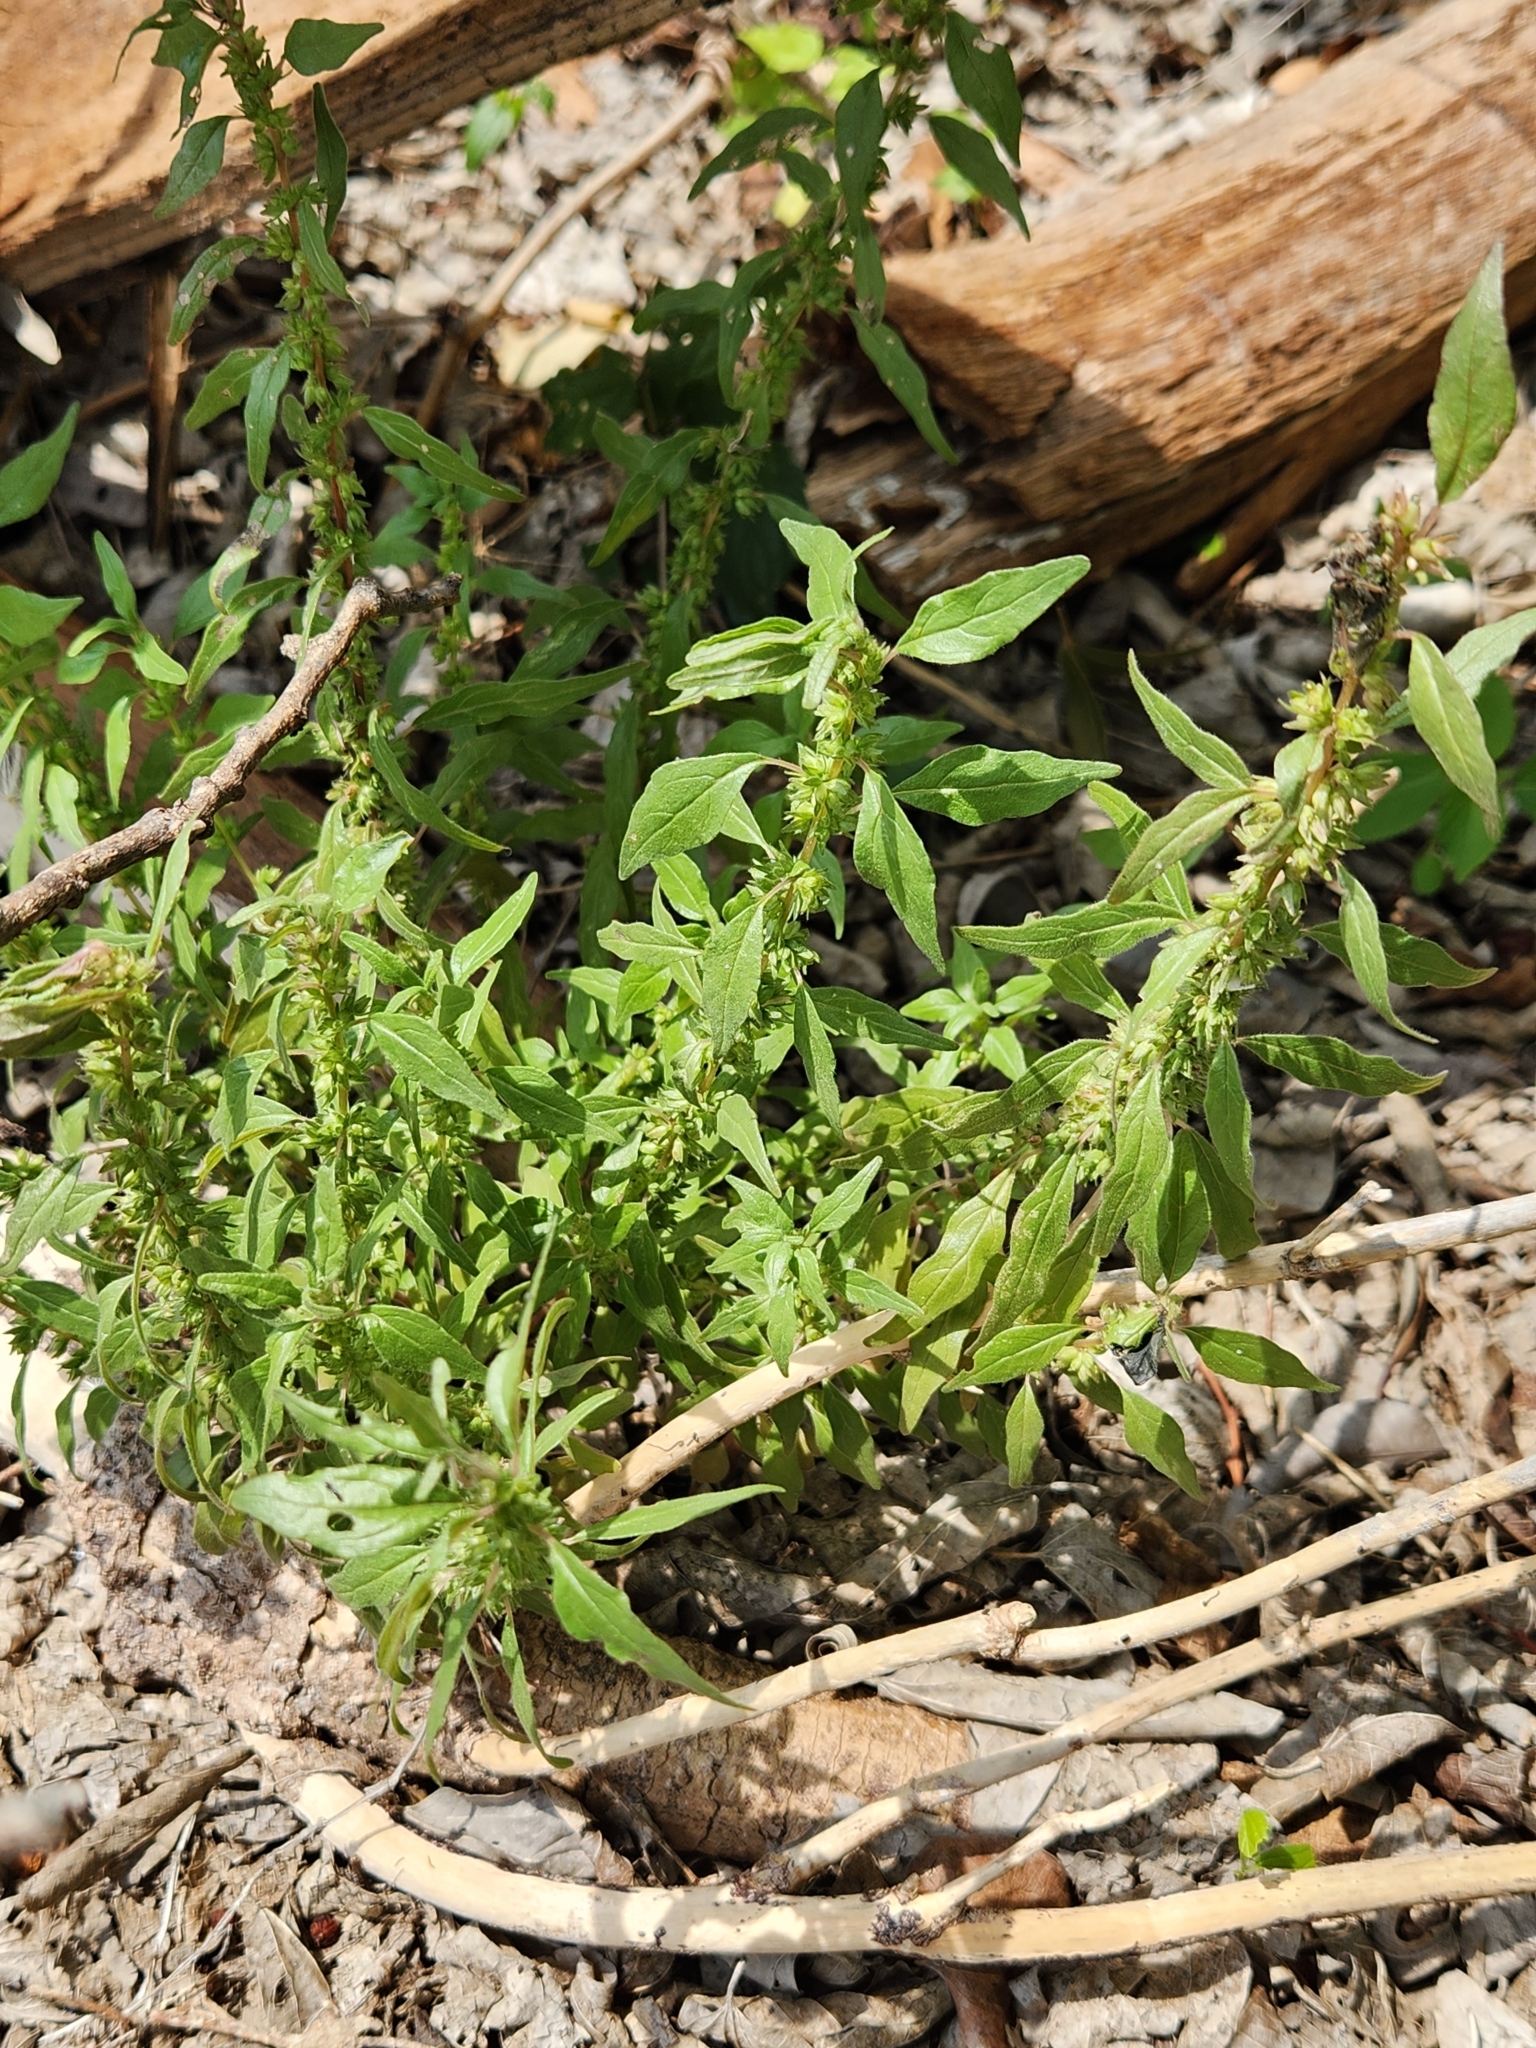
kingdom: Plantae
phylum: Tracheophyta
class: Magnoliopsida
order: Rosales
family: Urticaceae
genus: Parietaria
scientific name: Parietaria pensylvanica
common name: Pennsylvania pellitory
